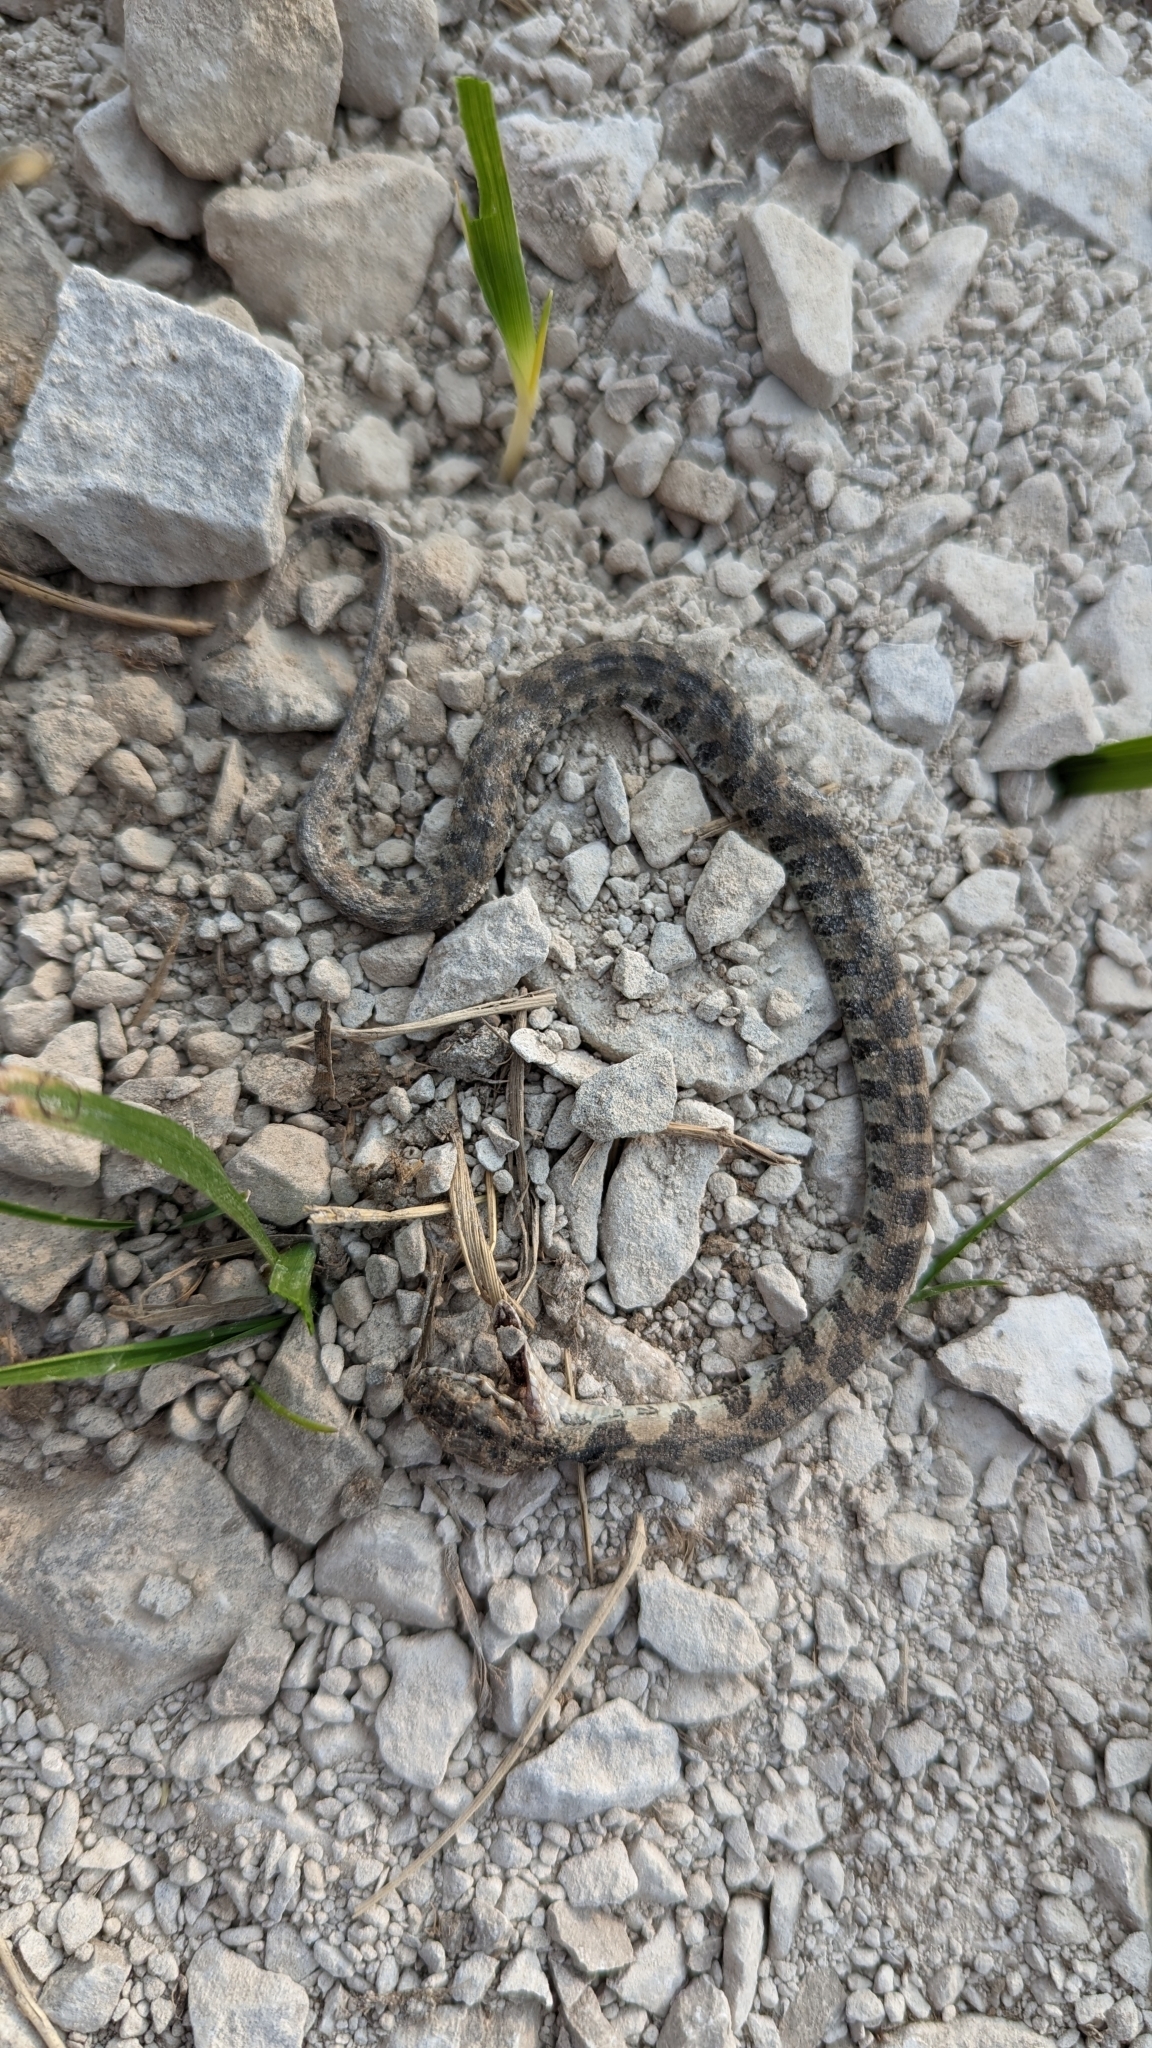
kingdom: Animalia
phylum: Chordata
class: Squamata
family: Colubridae
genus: Nerodia
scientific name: Nerodia sipedon
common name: Northern water snake
